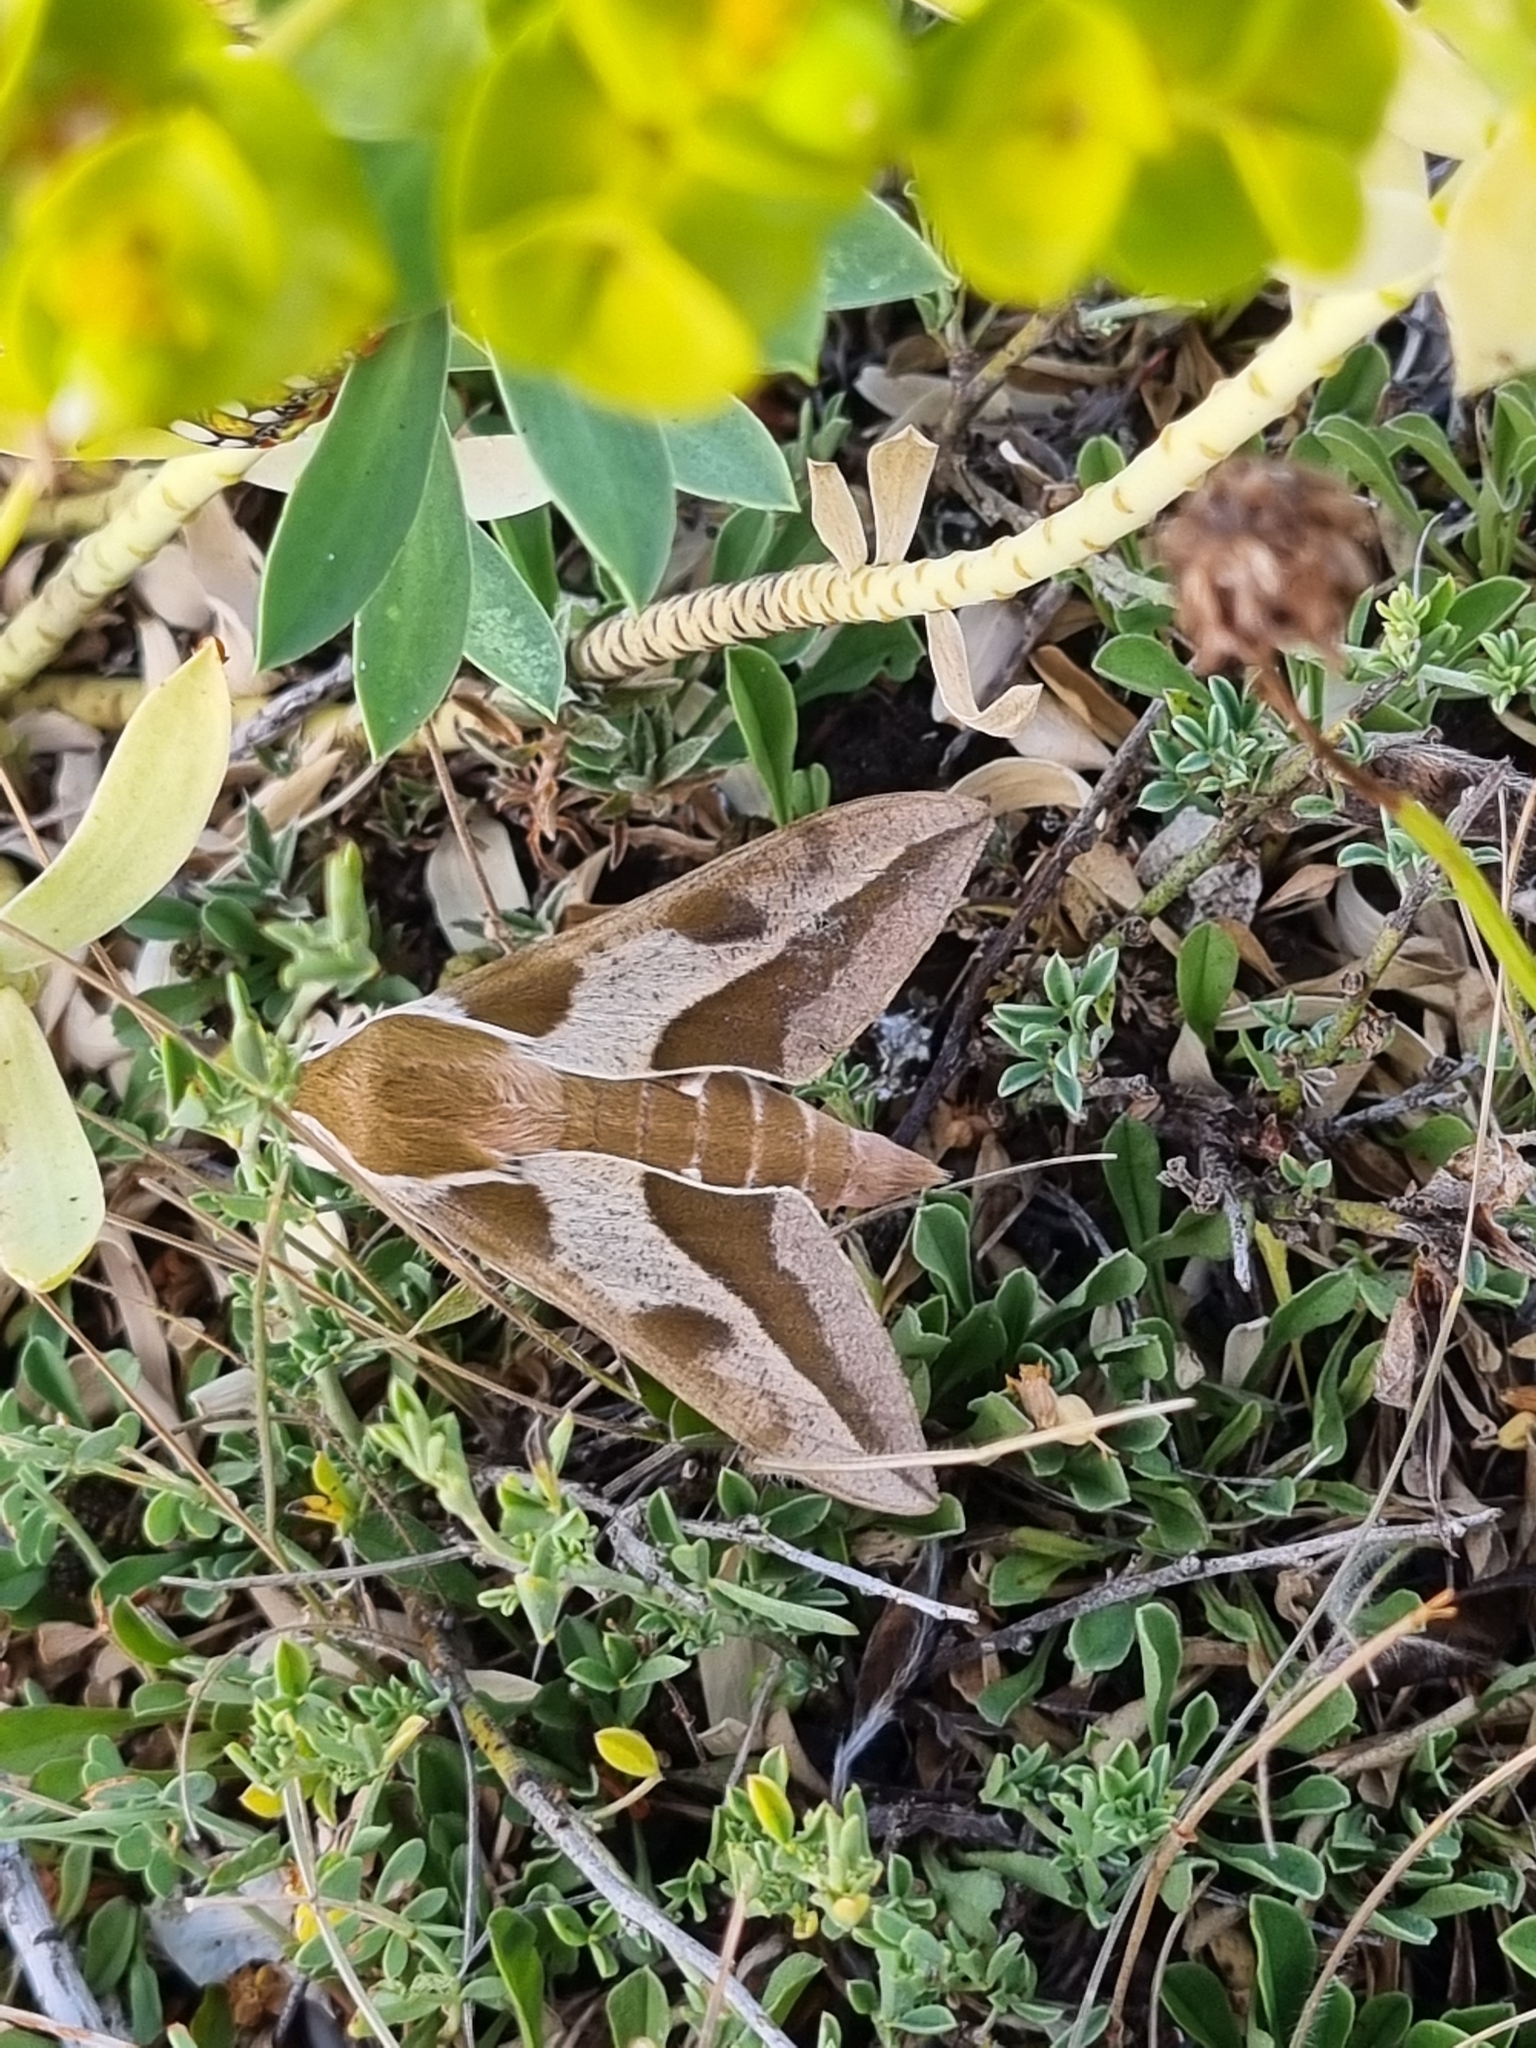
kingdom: Animalia
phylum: Arthropoda
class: Insecta
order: Lepidoptera
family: Sphingidae
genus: Hyles
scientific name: Hyles euphorbiae
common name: Spurge hawk-moth
